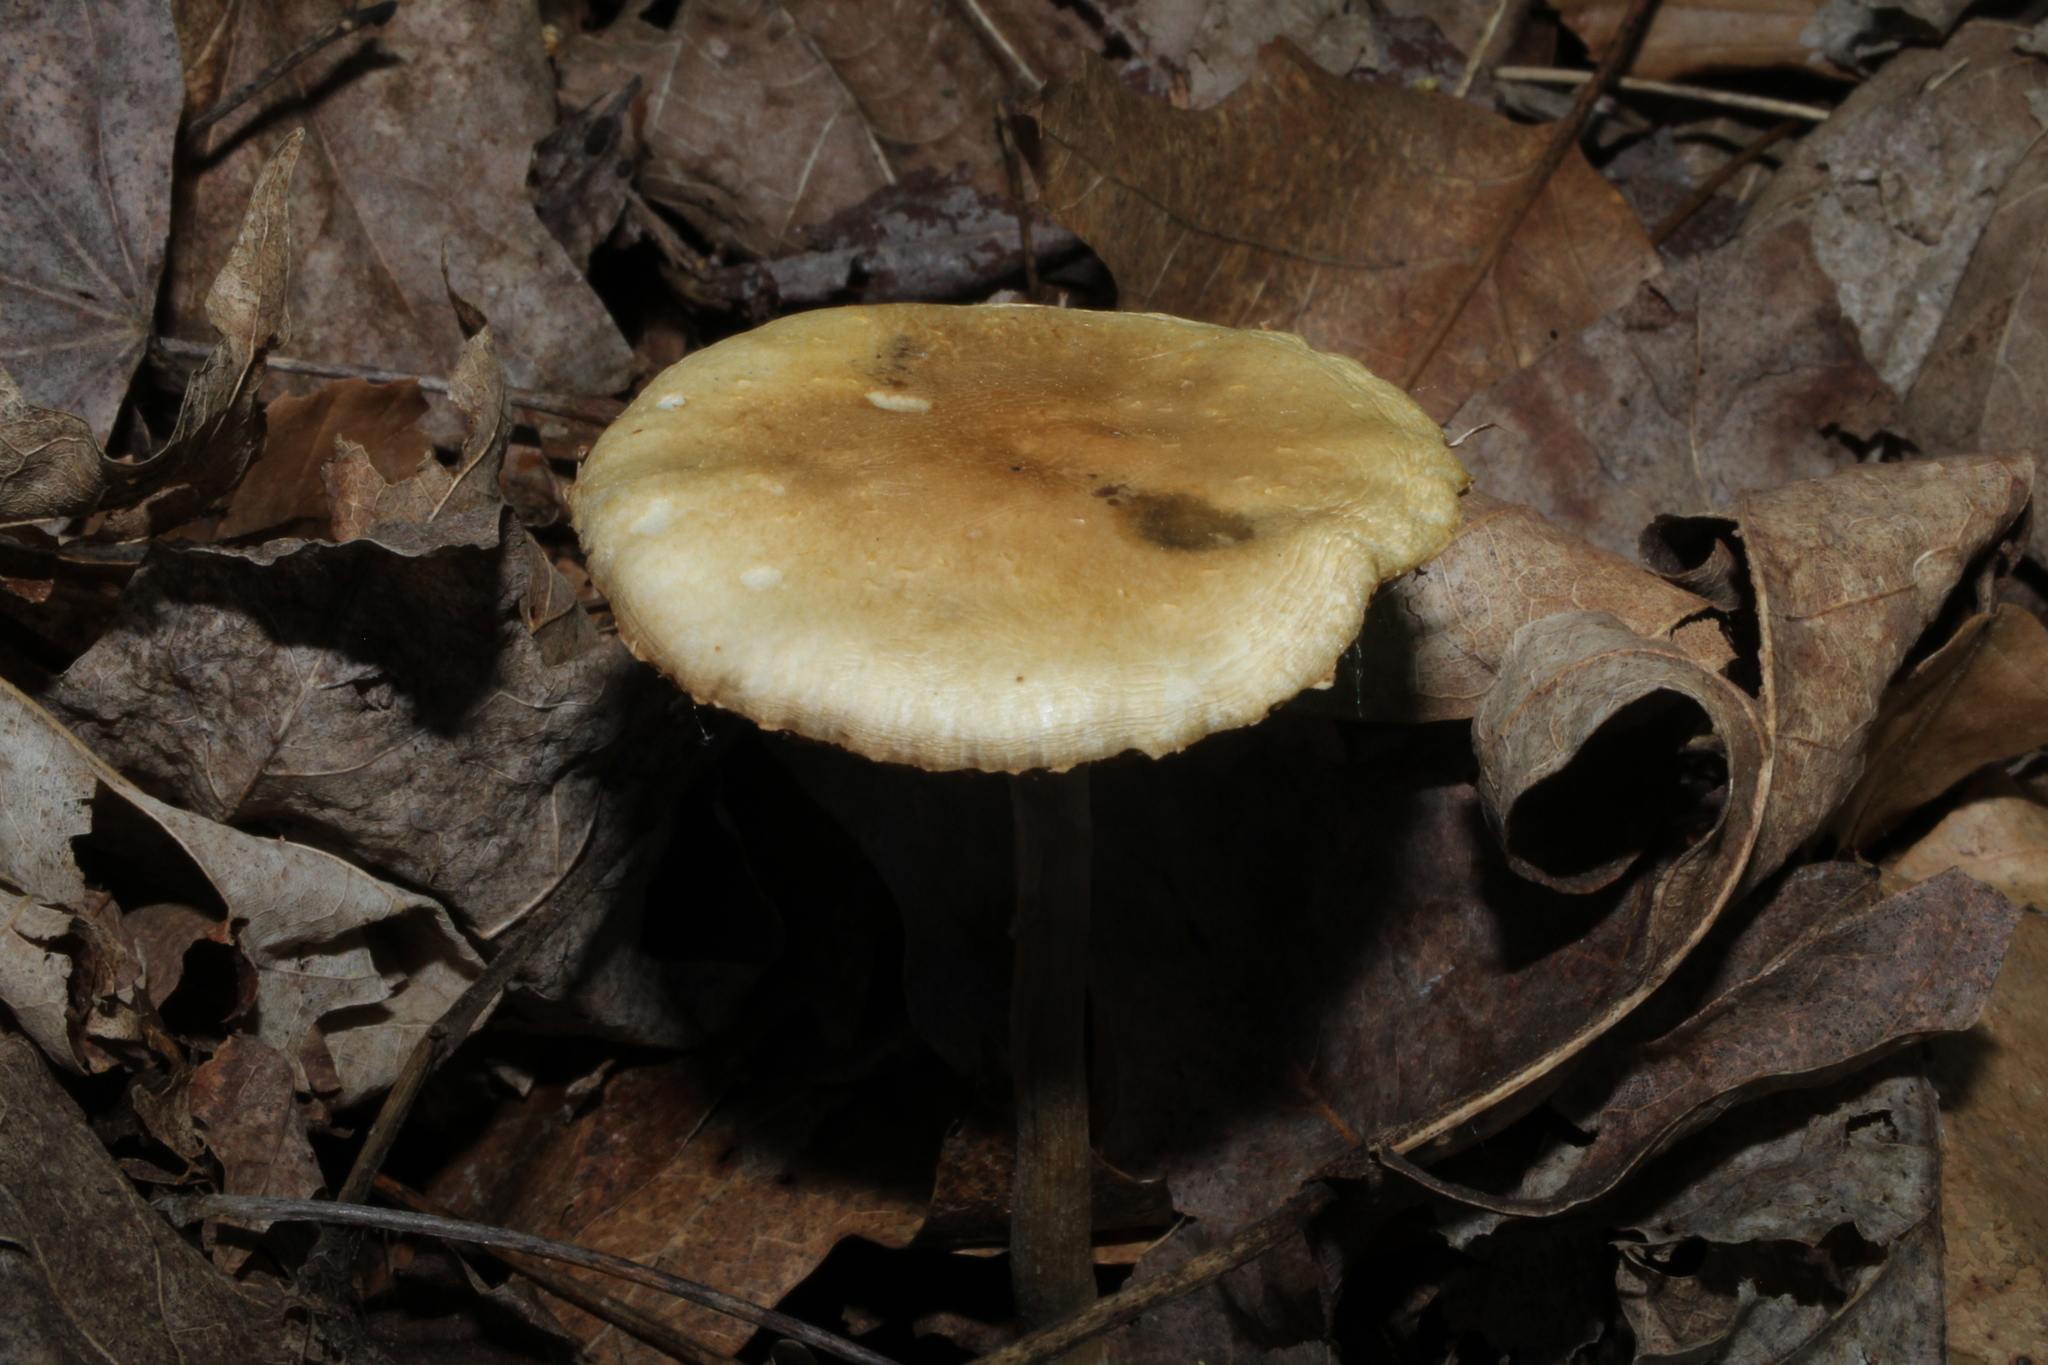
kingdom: Fungi
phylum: Basidiomycota
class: Agaricomycetes
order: Agaricales
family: Psathyrellaceae
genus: Candolleomyces
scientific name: Candolleomyces candolleanus
